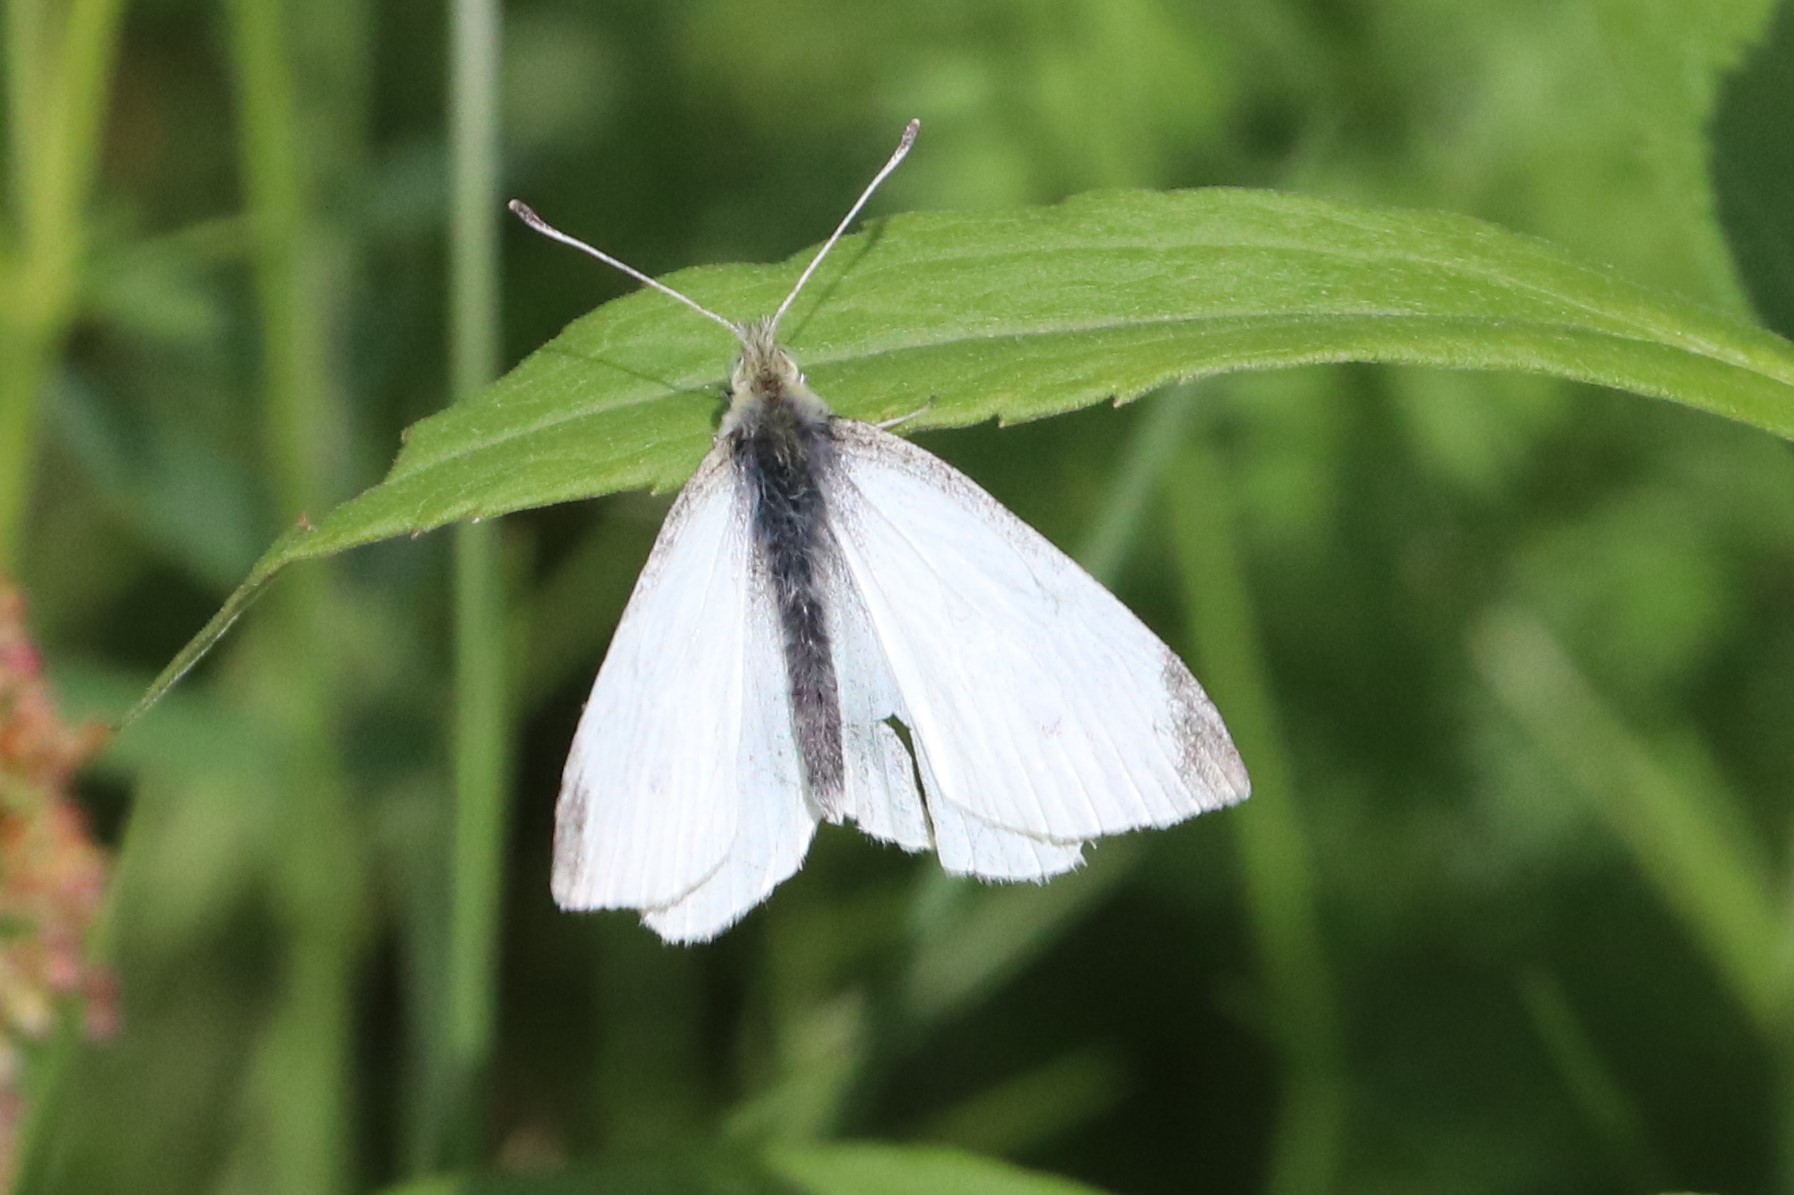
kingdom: Animalia
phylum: Arthropoda
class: Insecta
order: Lepidoptera
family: Pieridae
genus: Pieris
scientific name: Pieris rapae
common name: Small white
